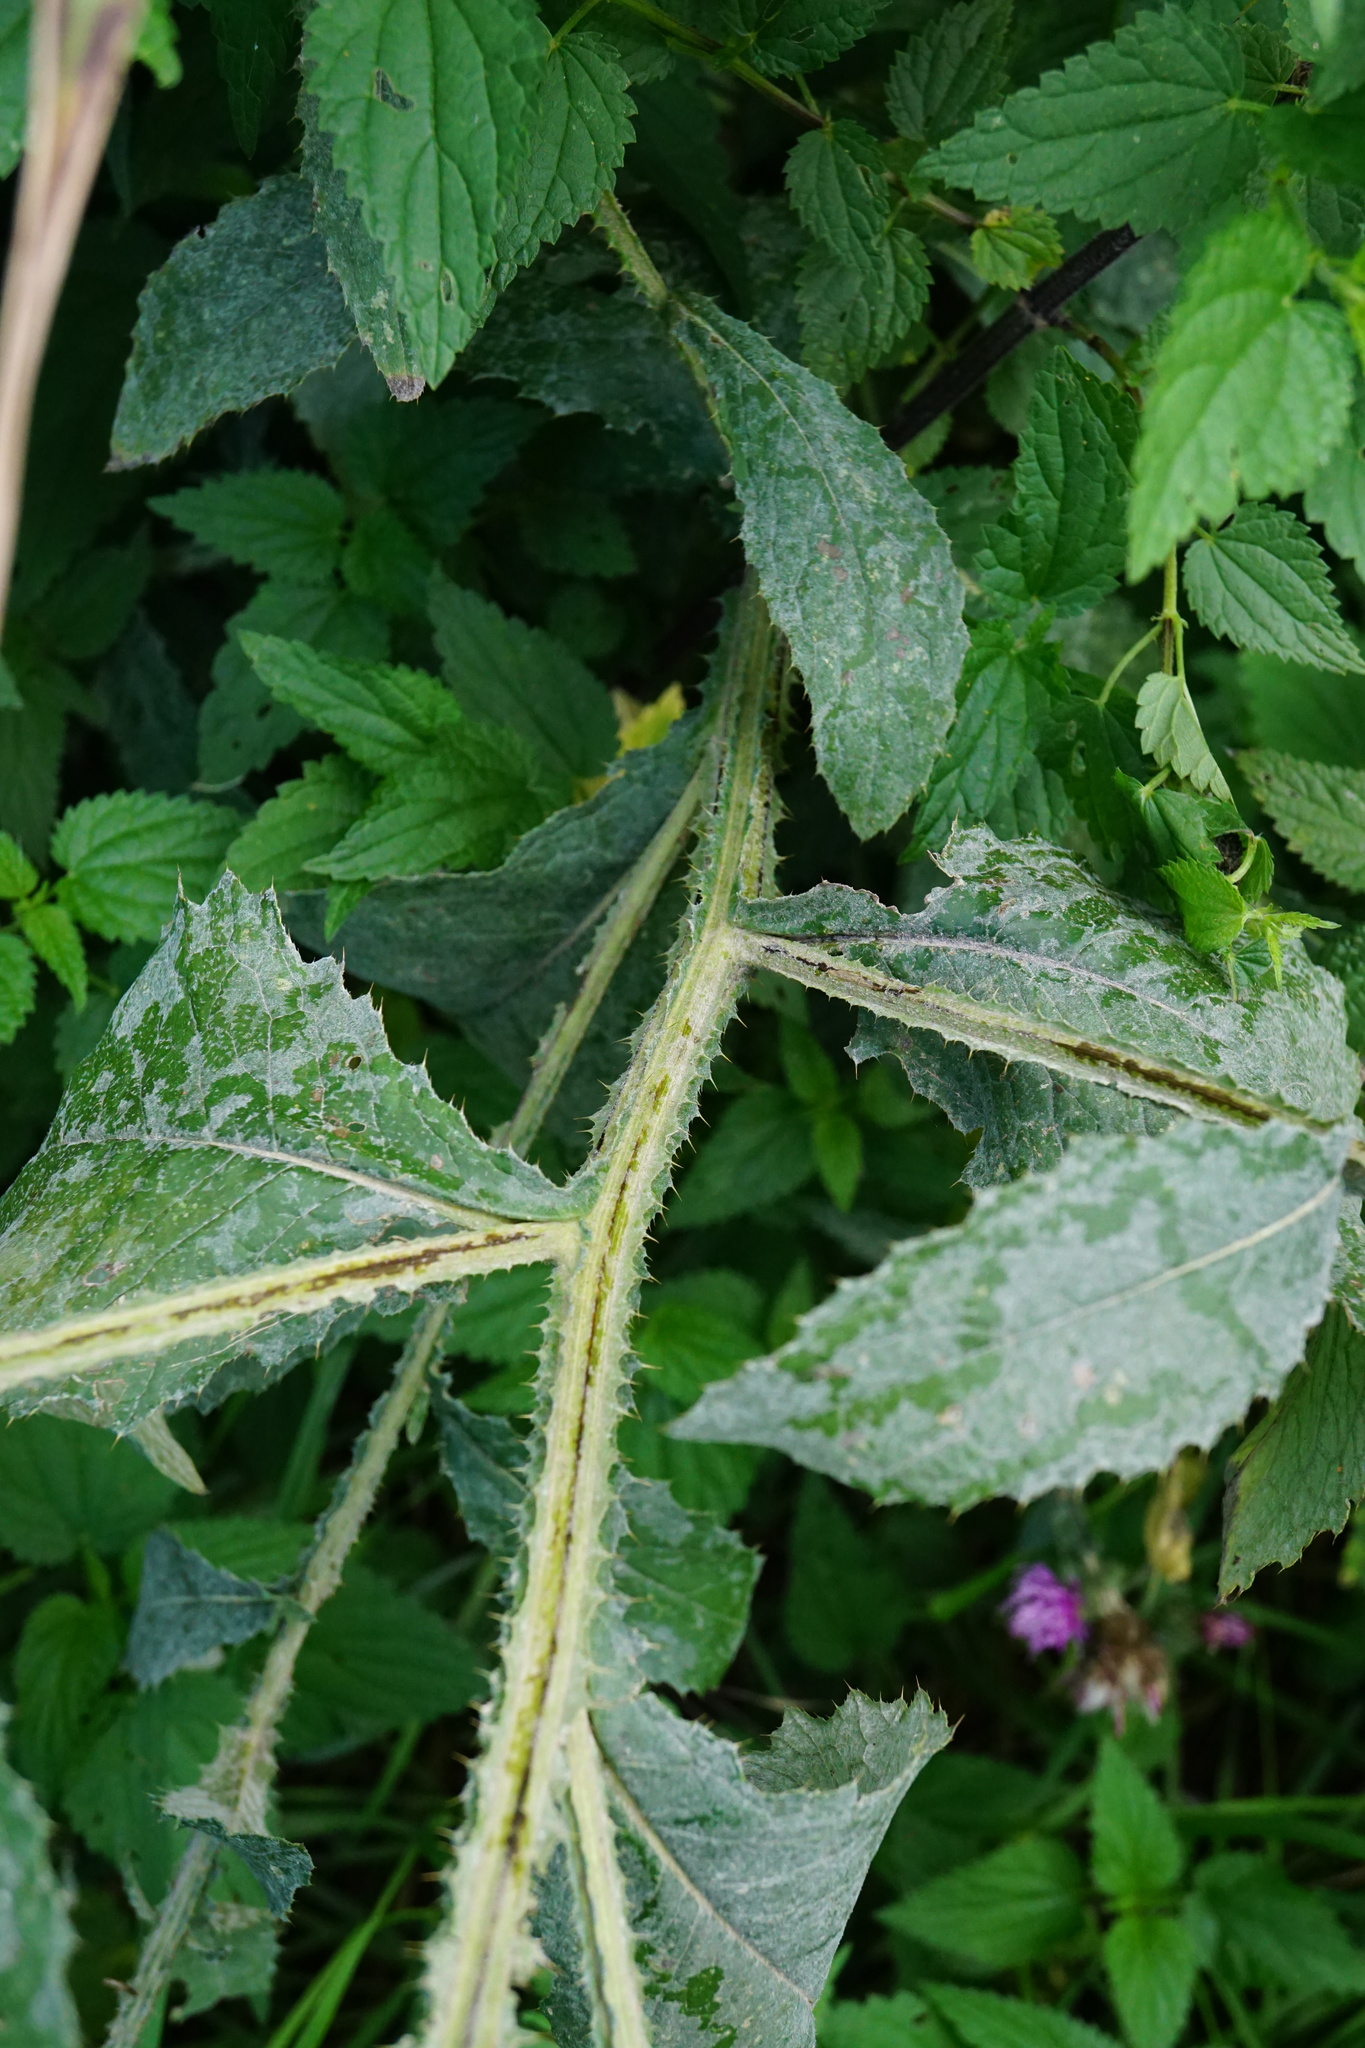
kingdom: Plantae
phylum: Tracheophyta
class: Magnoliopsida
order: Asterales
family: Asteraceae
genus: Carduus
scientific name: Carduus crispus
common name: Welted thistle
